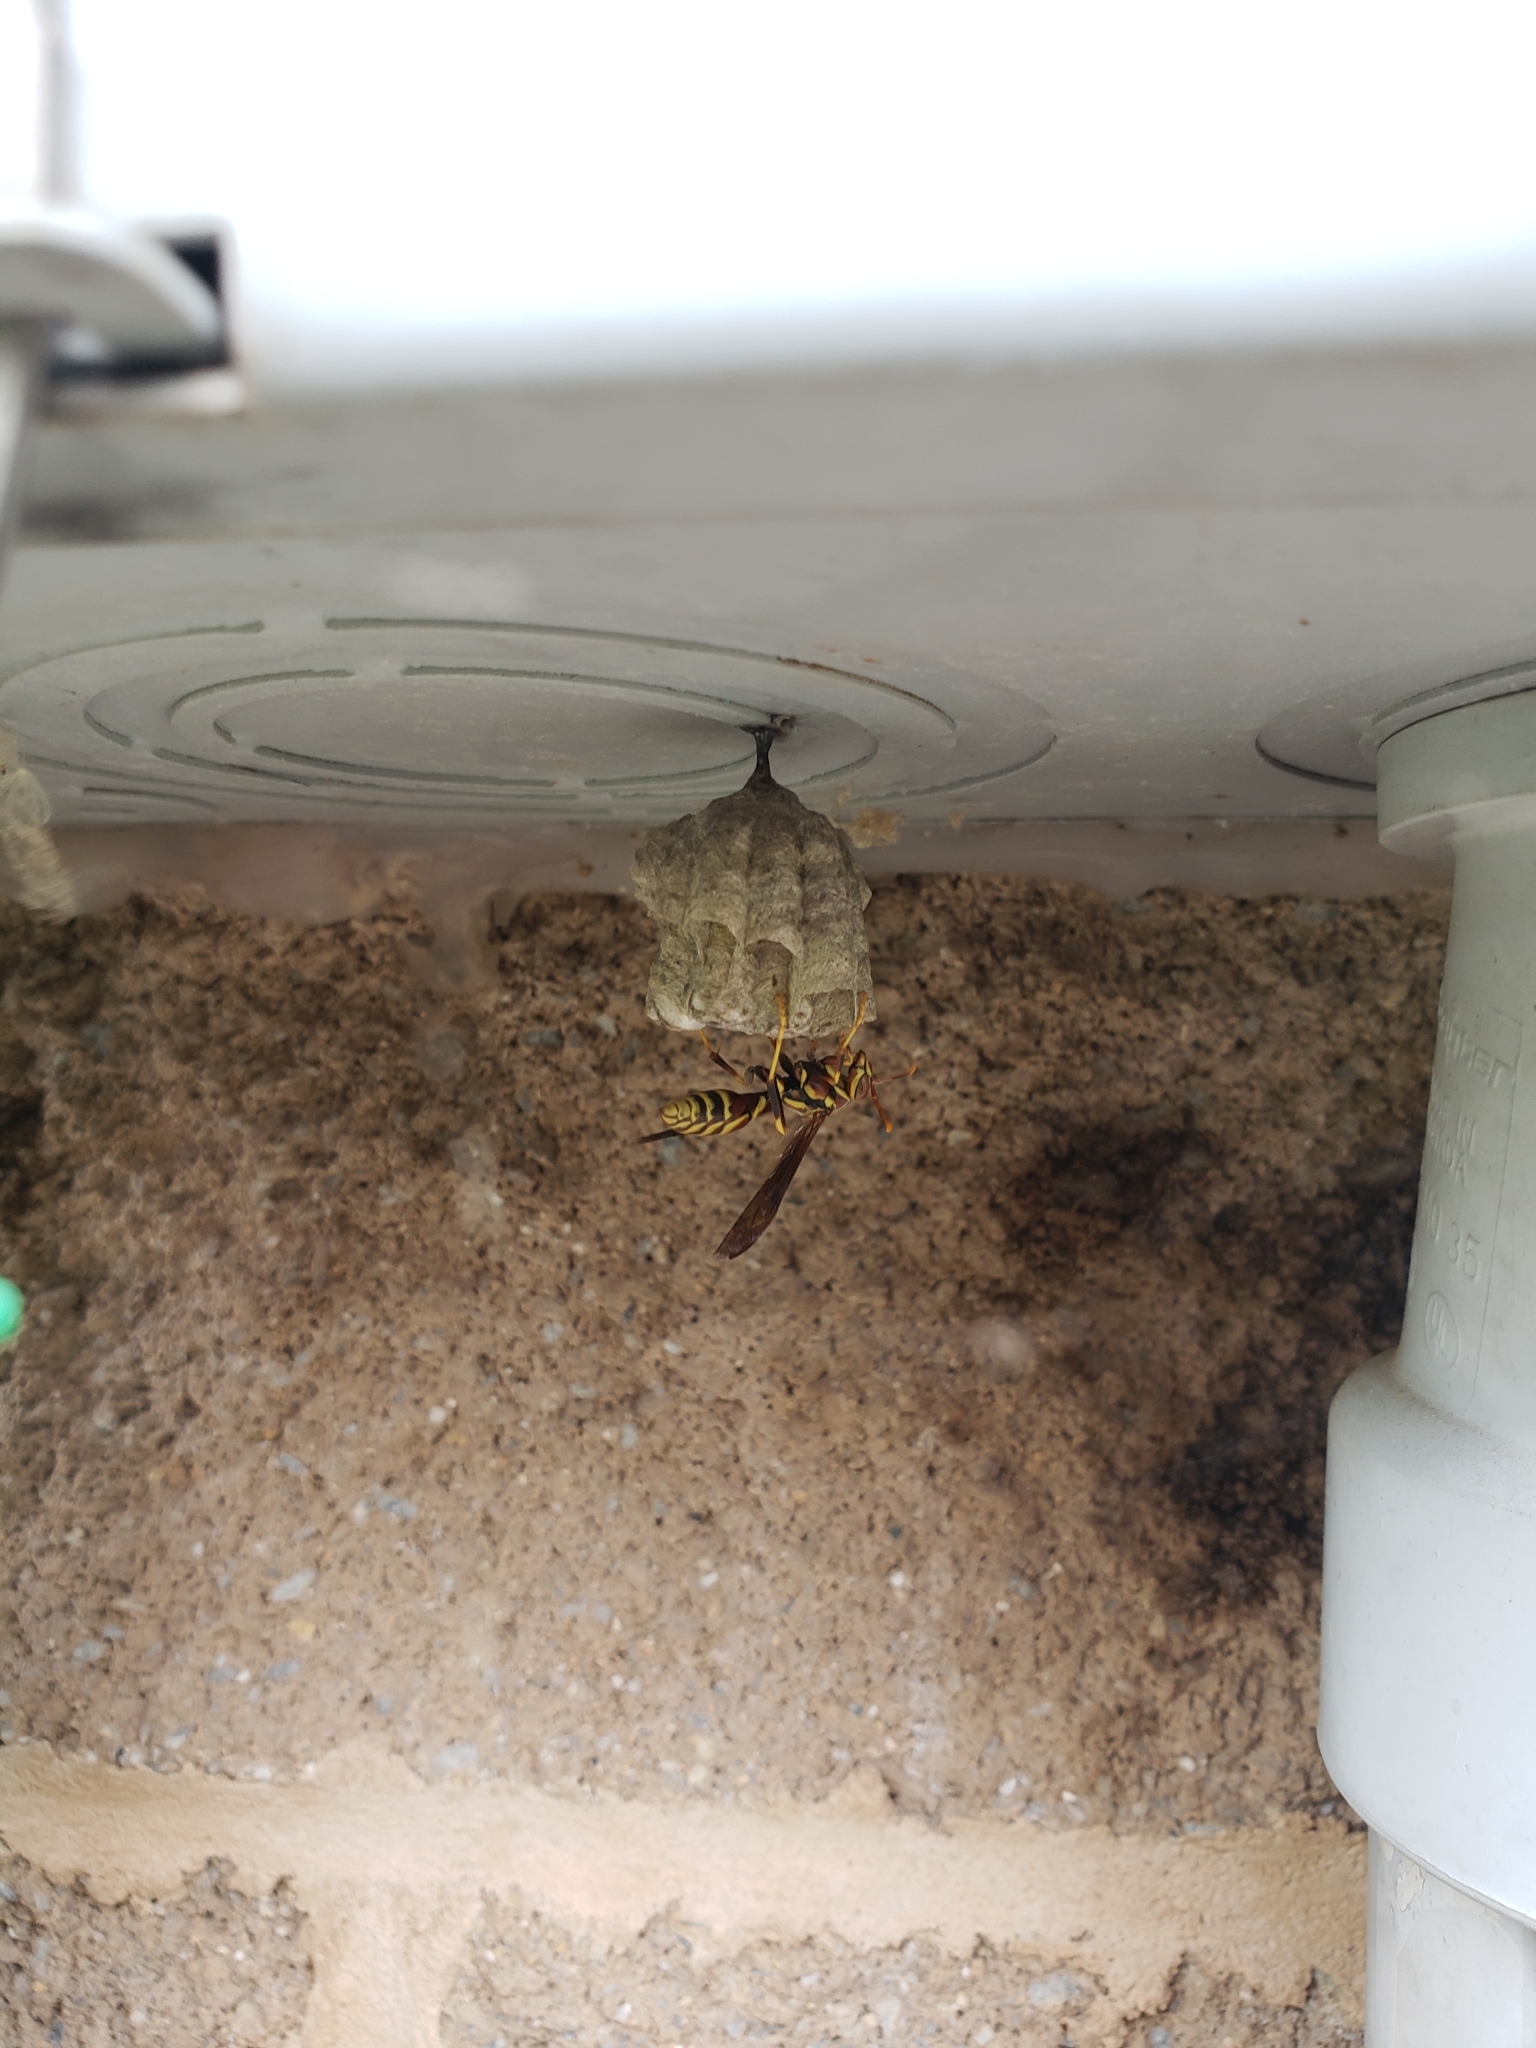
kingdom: Animalia
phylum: Arthropoda
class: Insecta
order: Hymenoptera
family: Eumenidae
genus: Polistes
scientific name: Polistes exclamans
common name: Paper wasp
